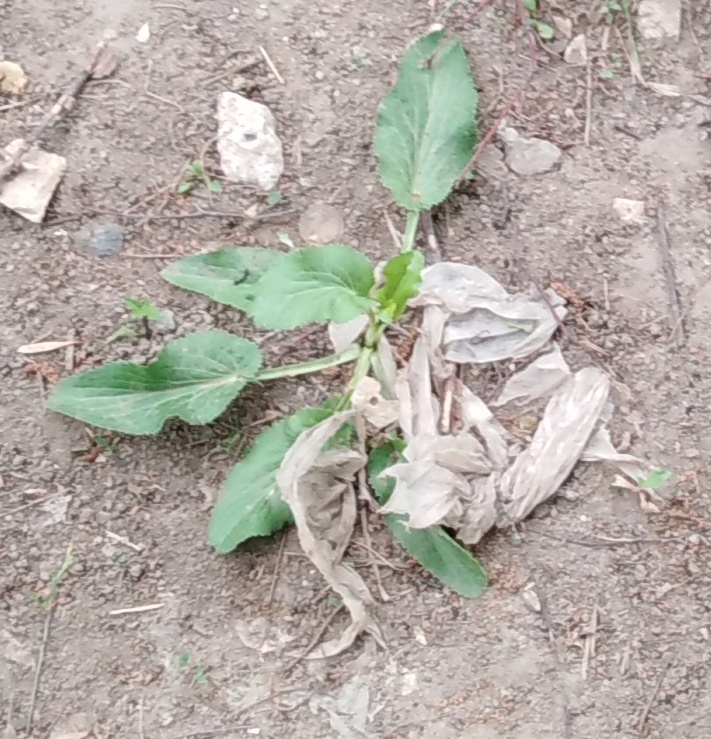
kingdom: Plantae
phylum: Tracheophyta
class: Magnoliopsida
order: Apiales
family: Apiaceae
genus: Eryngium
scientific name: Eryngium planum
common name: Blue eryngo
